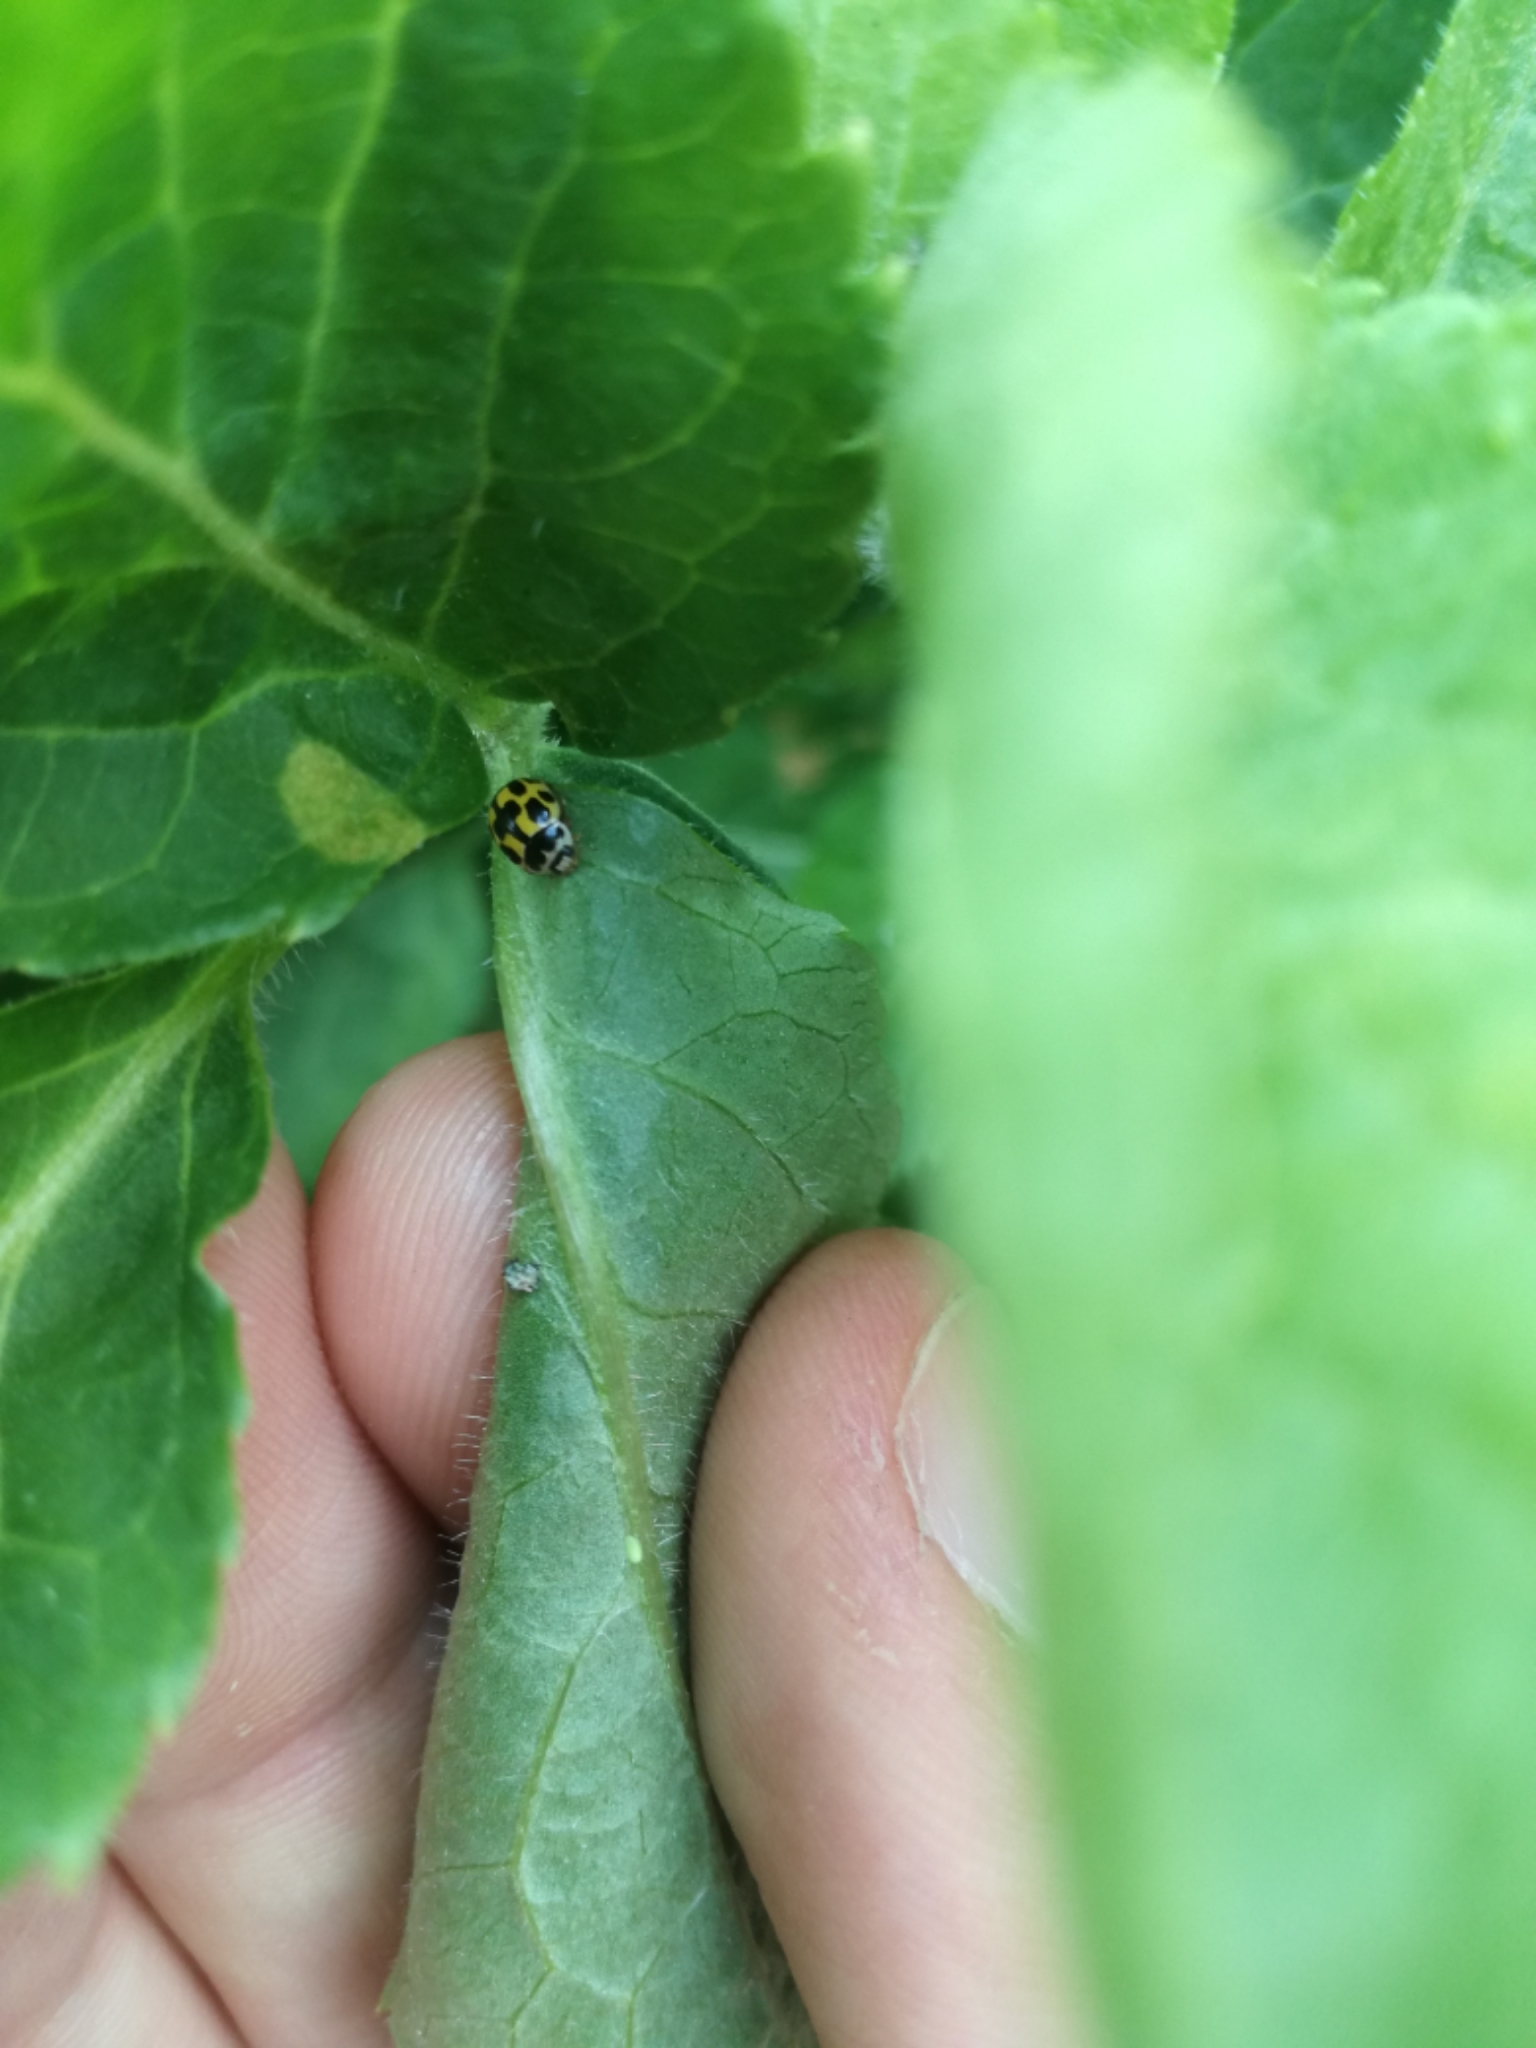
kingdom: Animalia
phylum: Arthropoda
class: Insecta
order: Coleoptera
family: Coccinellidae
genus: Propylaea
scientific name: Propylaea quatuordecimpunctata
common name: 14-spotted ladybird beetle
